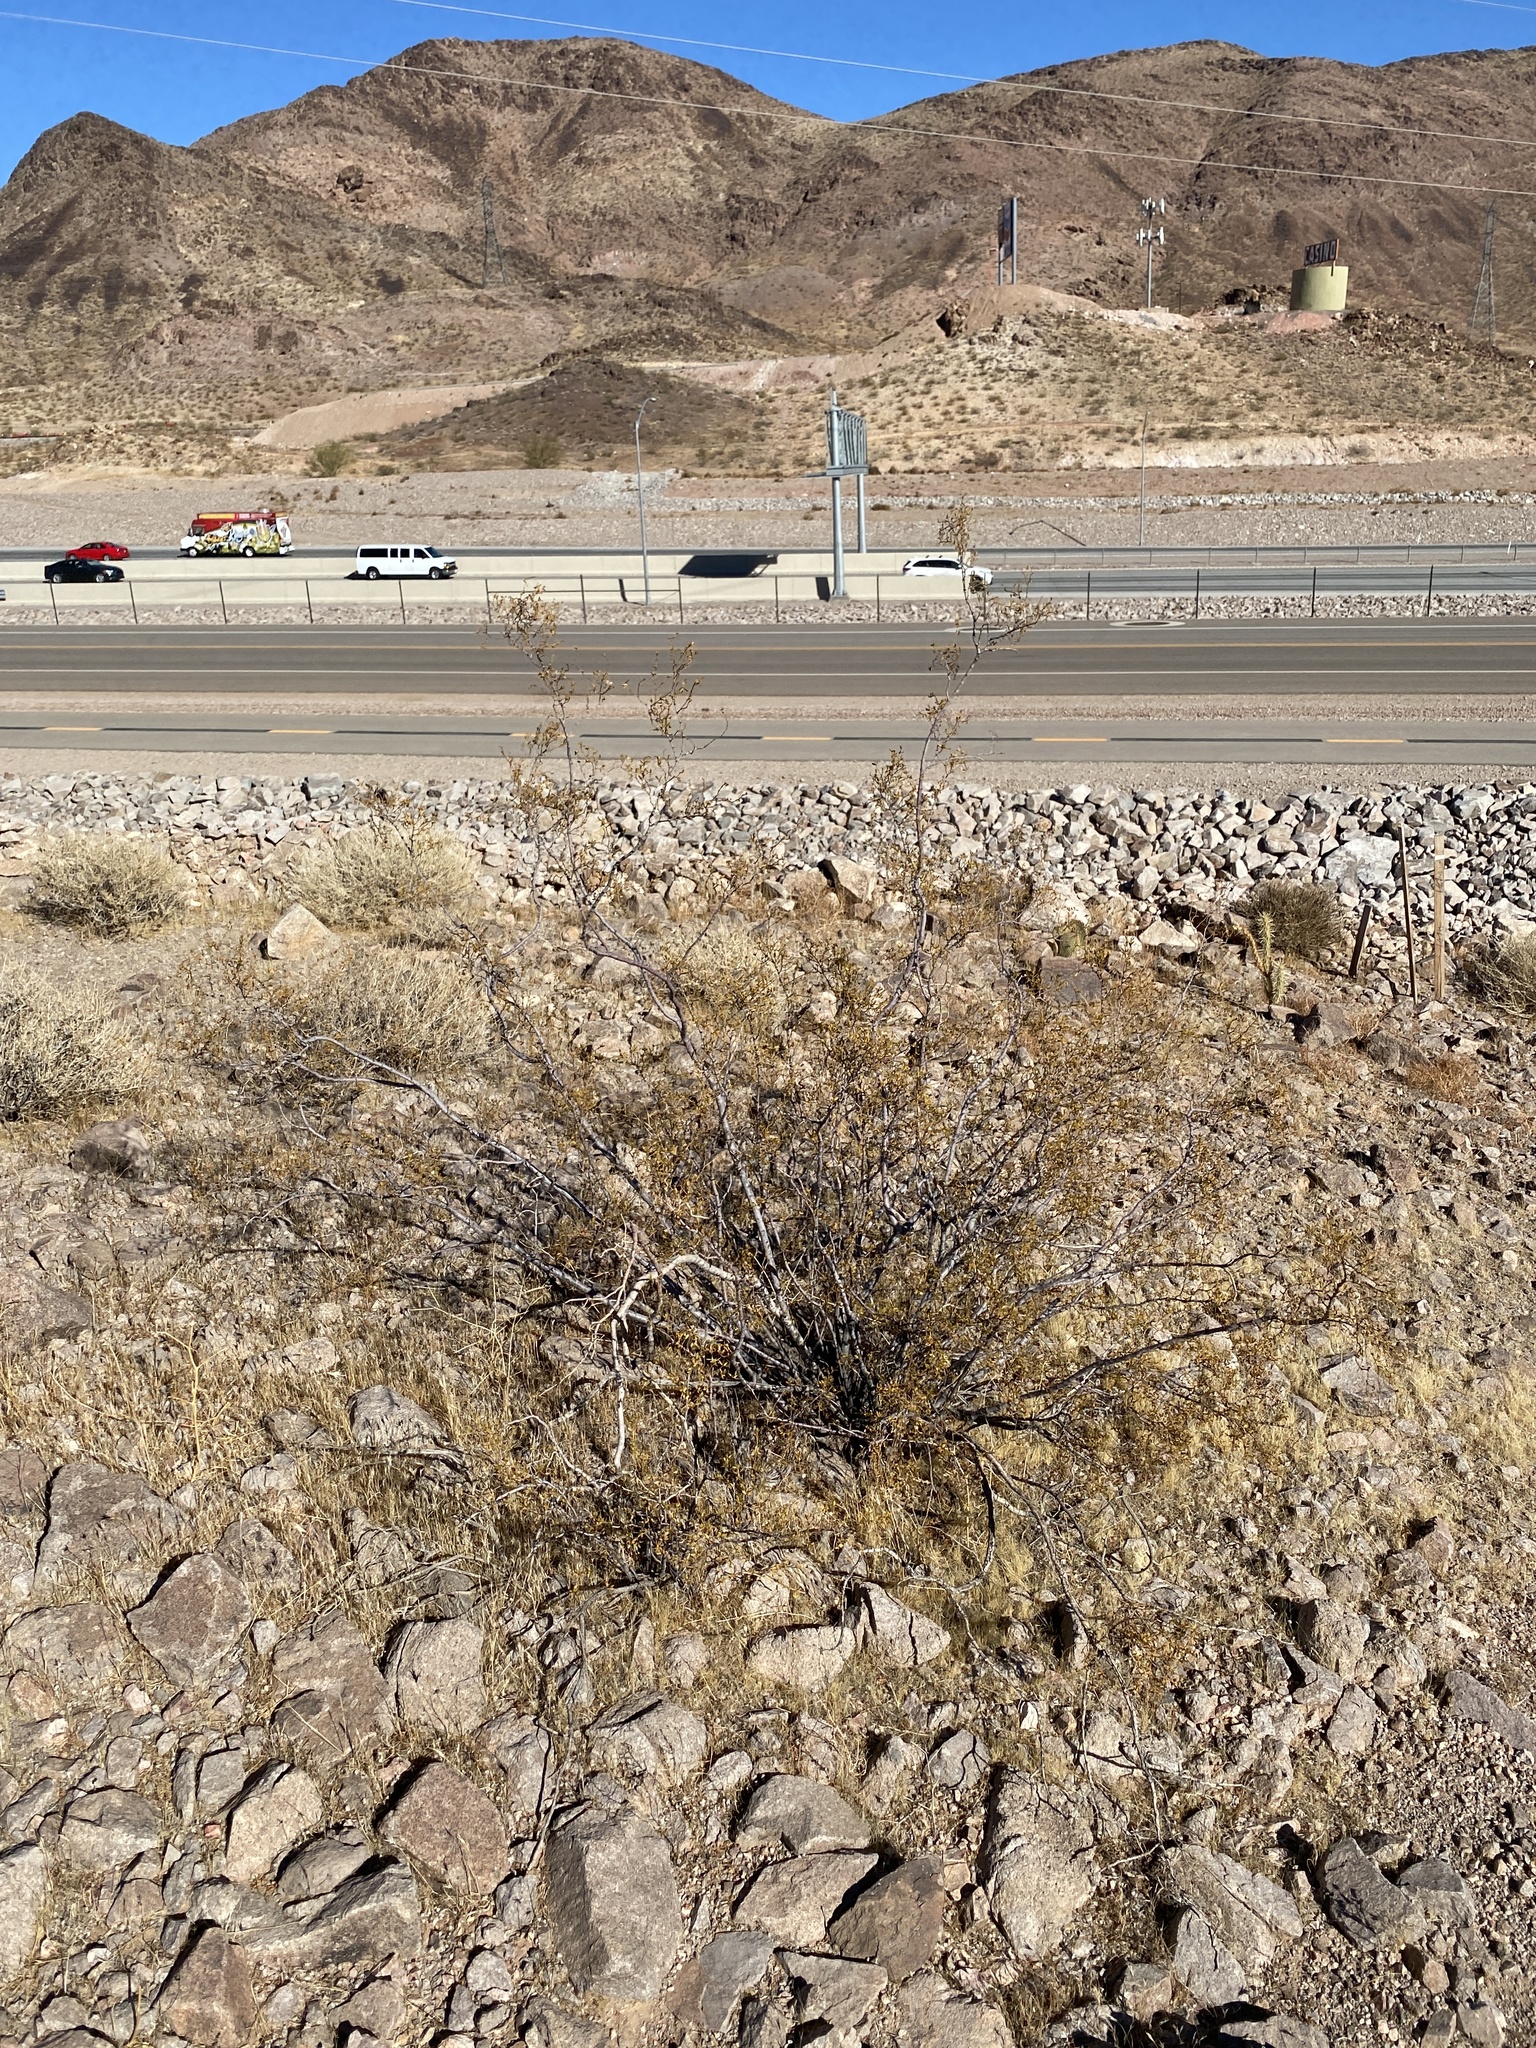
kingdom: Plantae
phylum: Tracheophyta
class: Magnoliopsida
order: Zygophyllales
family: Zygophyllaceae
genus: Larrea
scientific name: Larrea tridentata
